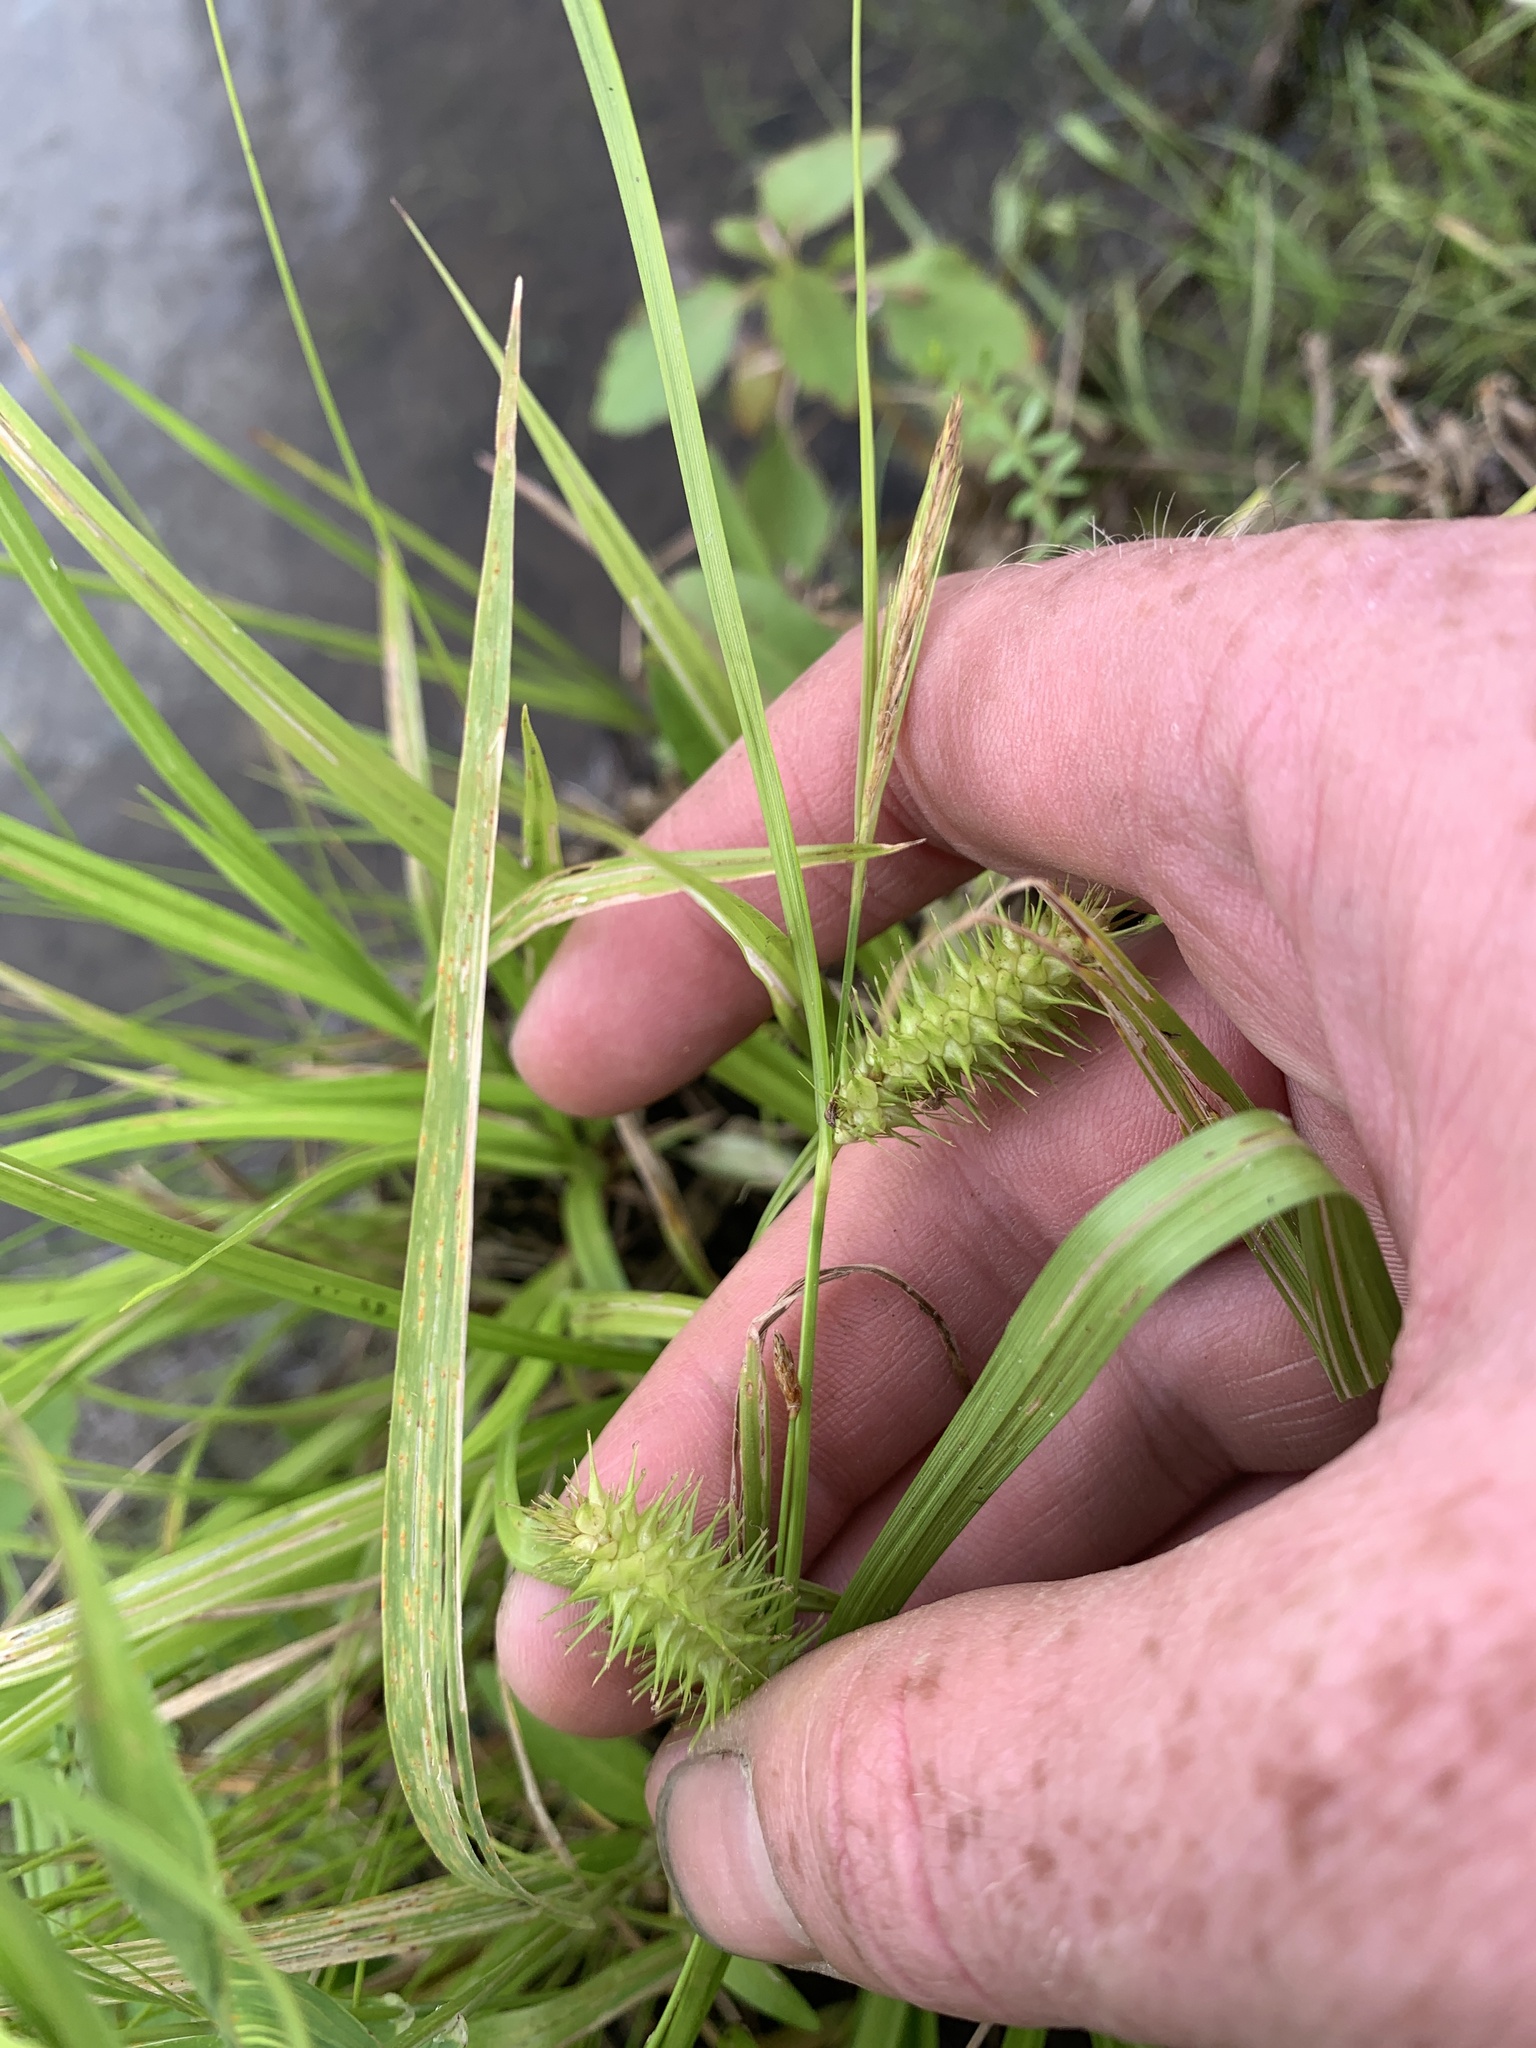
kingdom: Plantae
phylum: Tracheophyta
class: Liliopsida
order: Poales
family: Cyperaceae
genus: Carex
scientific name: Carex lurida
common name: Sallow sedge
